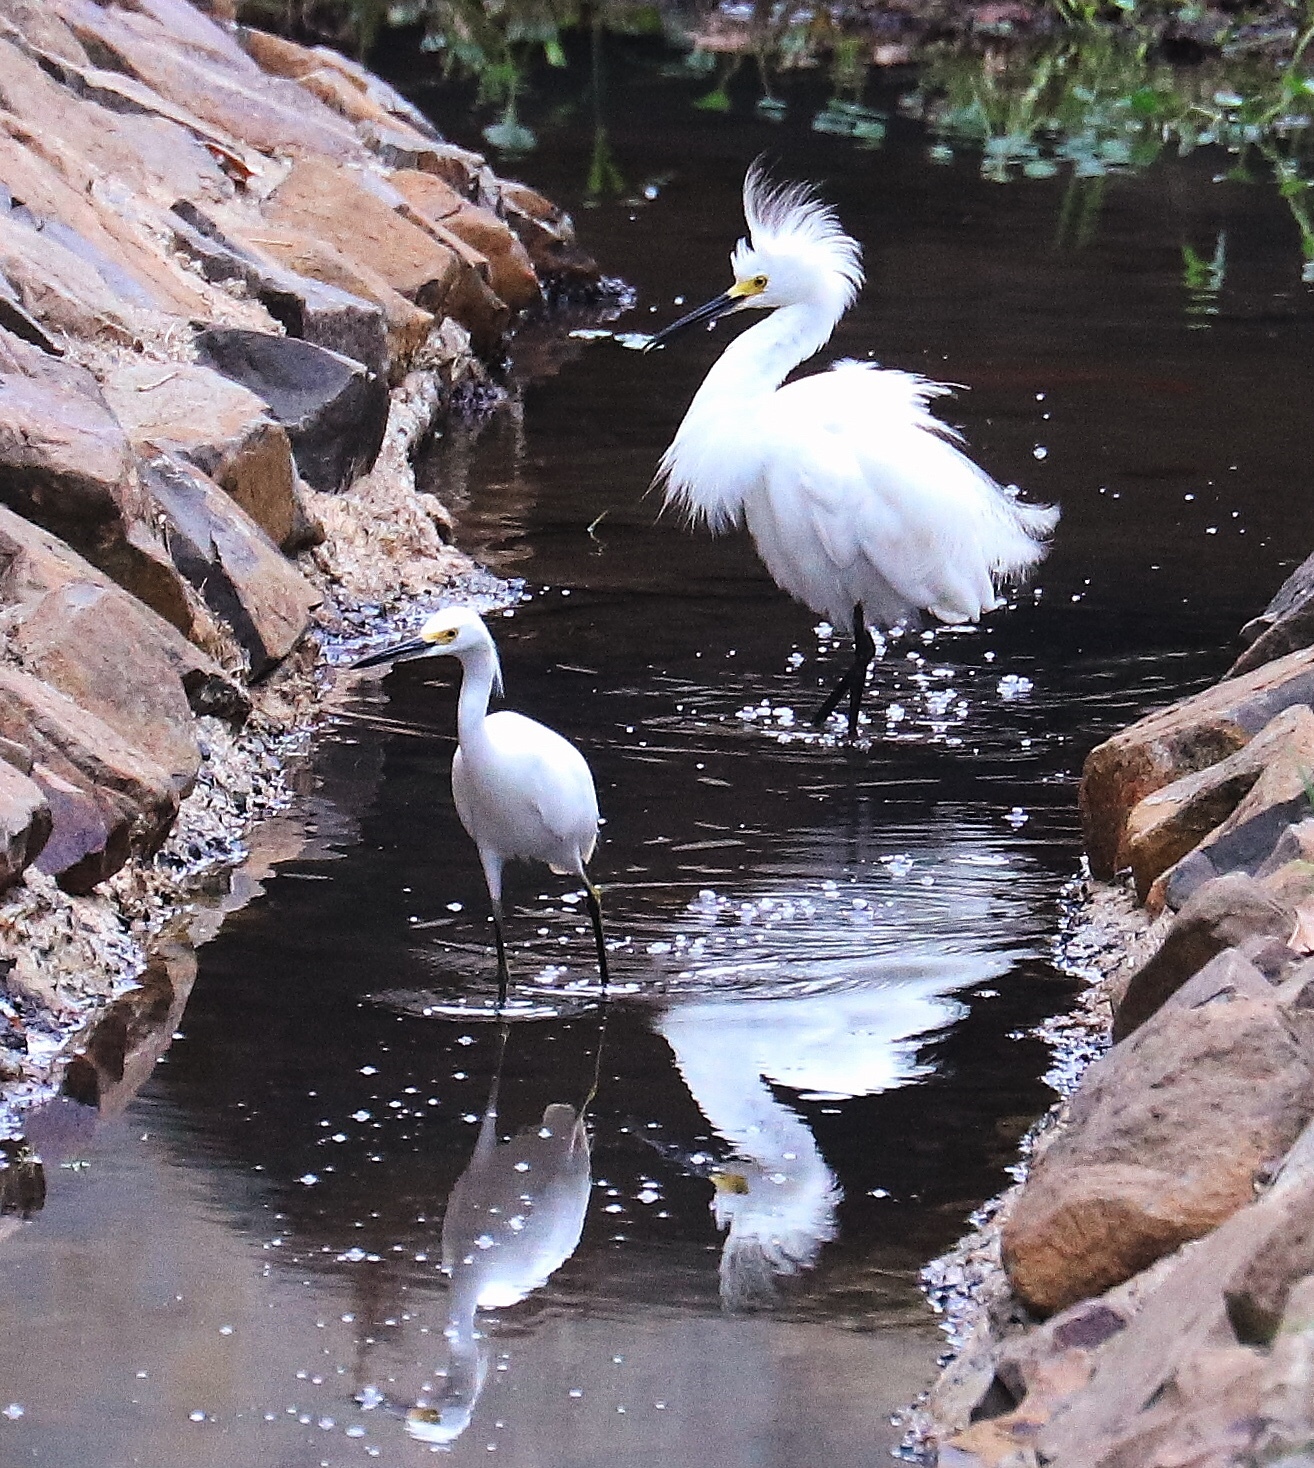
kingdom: Animalia
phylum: Chordata
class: Aves
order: Pelecaniformes
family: Ardeidae
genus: Egretta
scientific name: Egretta thula
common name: Snowy egret
